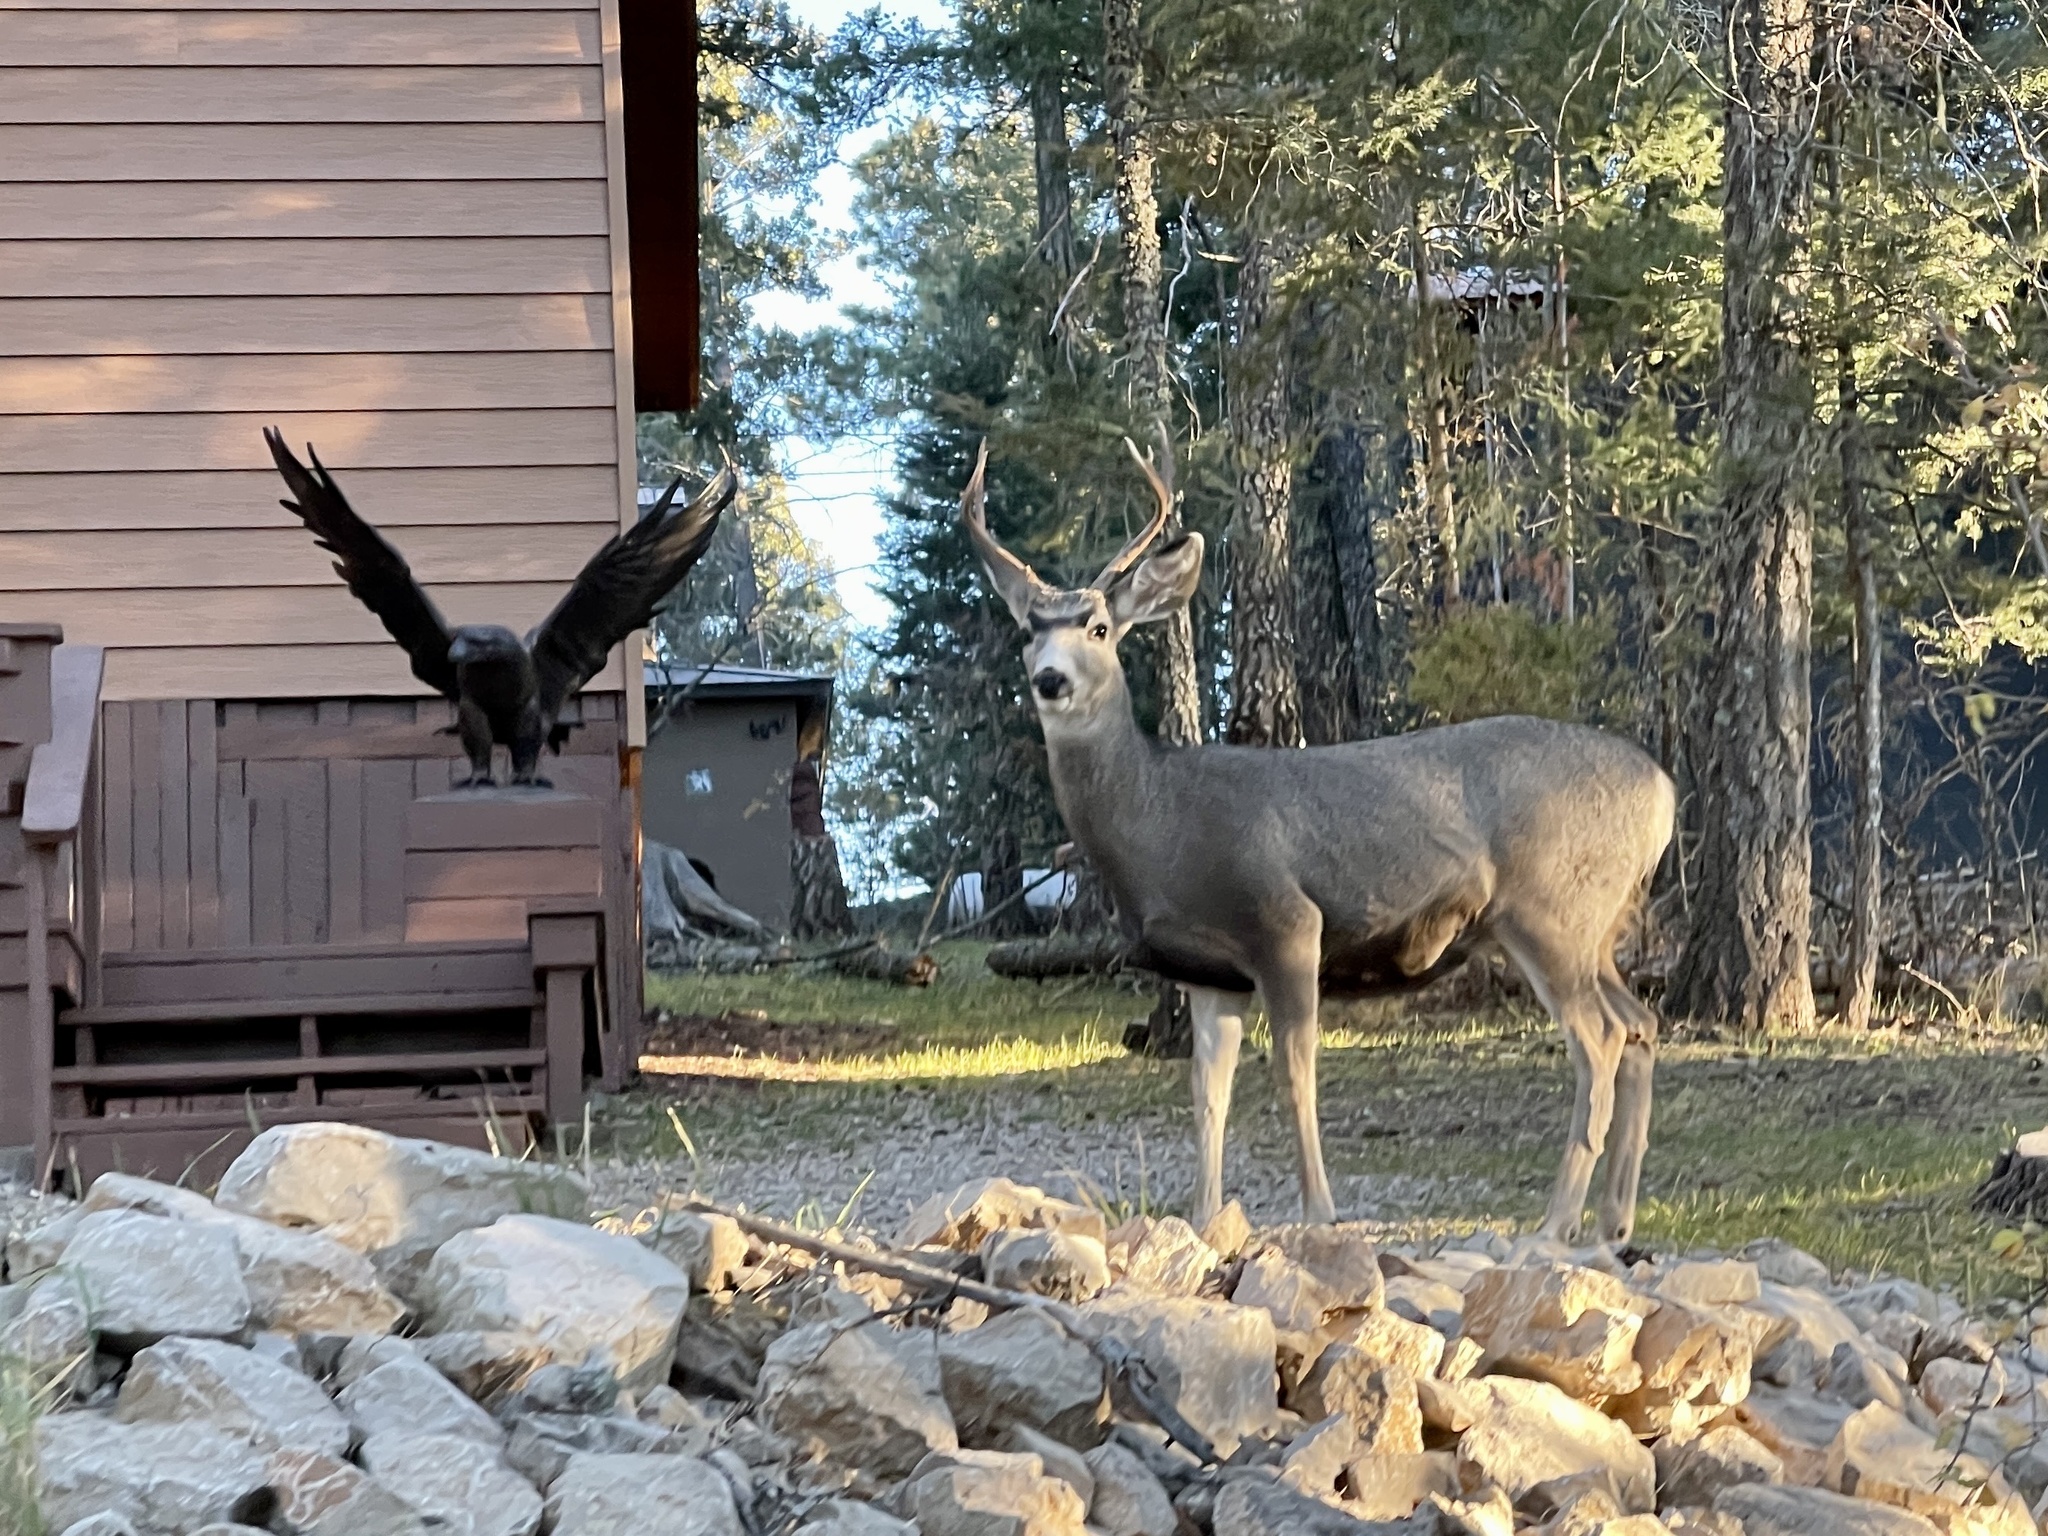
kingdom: Animalia
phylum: Chordata
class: Mammalia
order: Artiodactyla
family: Cervidae
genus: Odocoileus
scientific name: Odocoileus hemionus
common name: Mule deer
